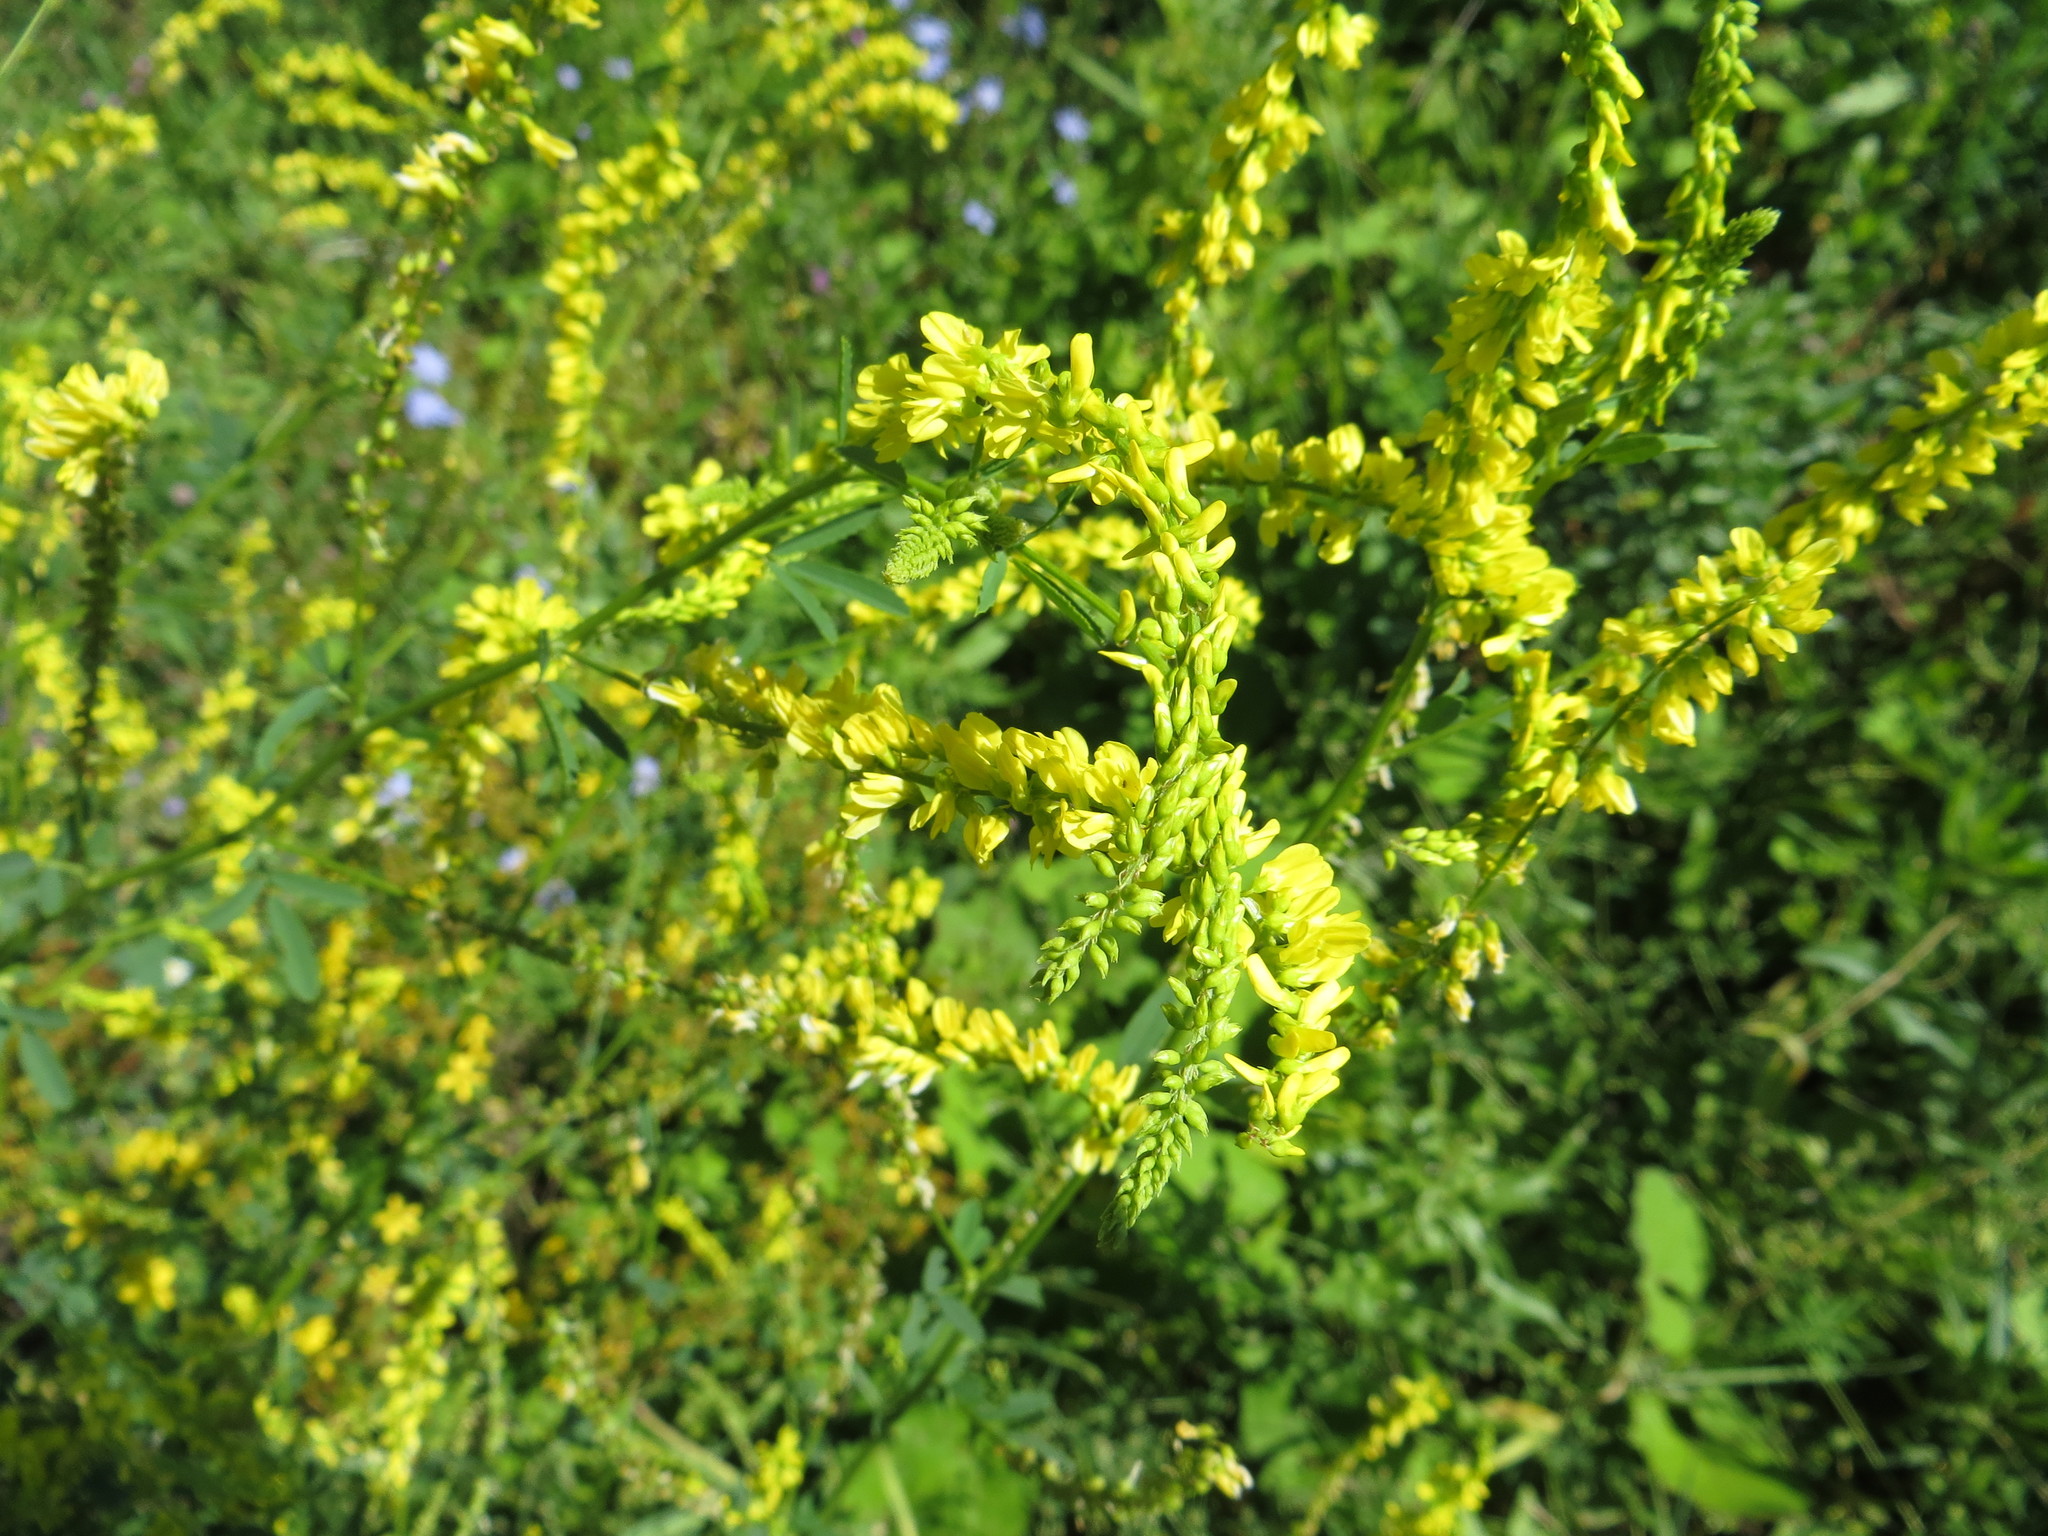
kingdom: Plantae
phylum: Tracheophyta
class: Magnoliopsida
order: Fabales
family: Fabaceae
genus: Melilotus
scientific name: Melilotus officinalis
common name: Sweetclover
